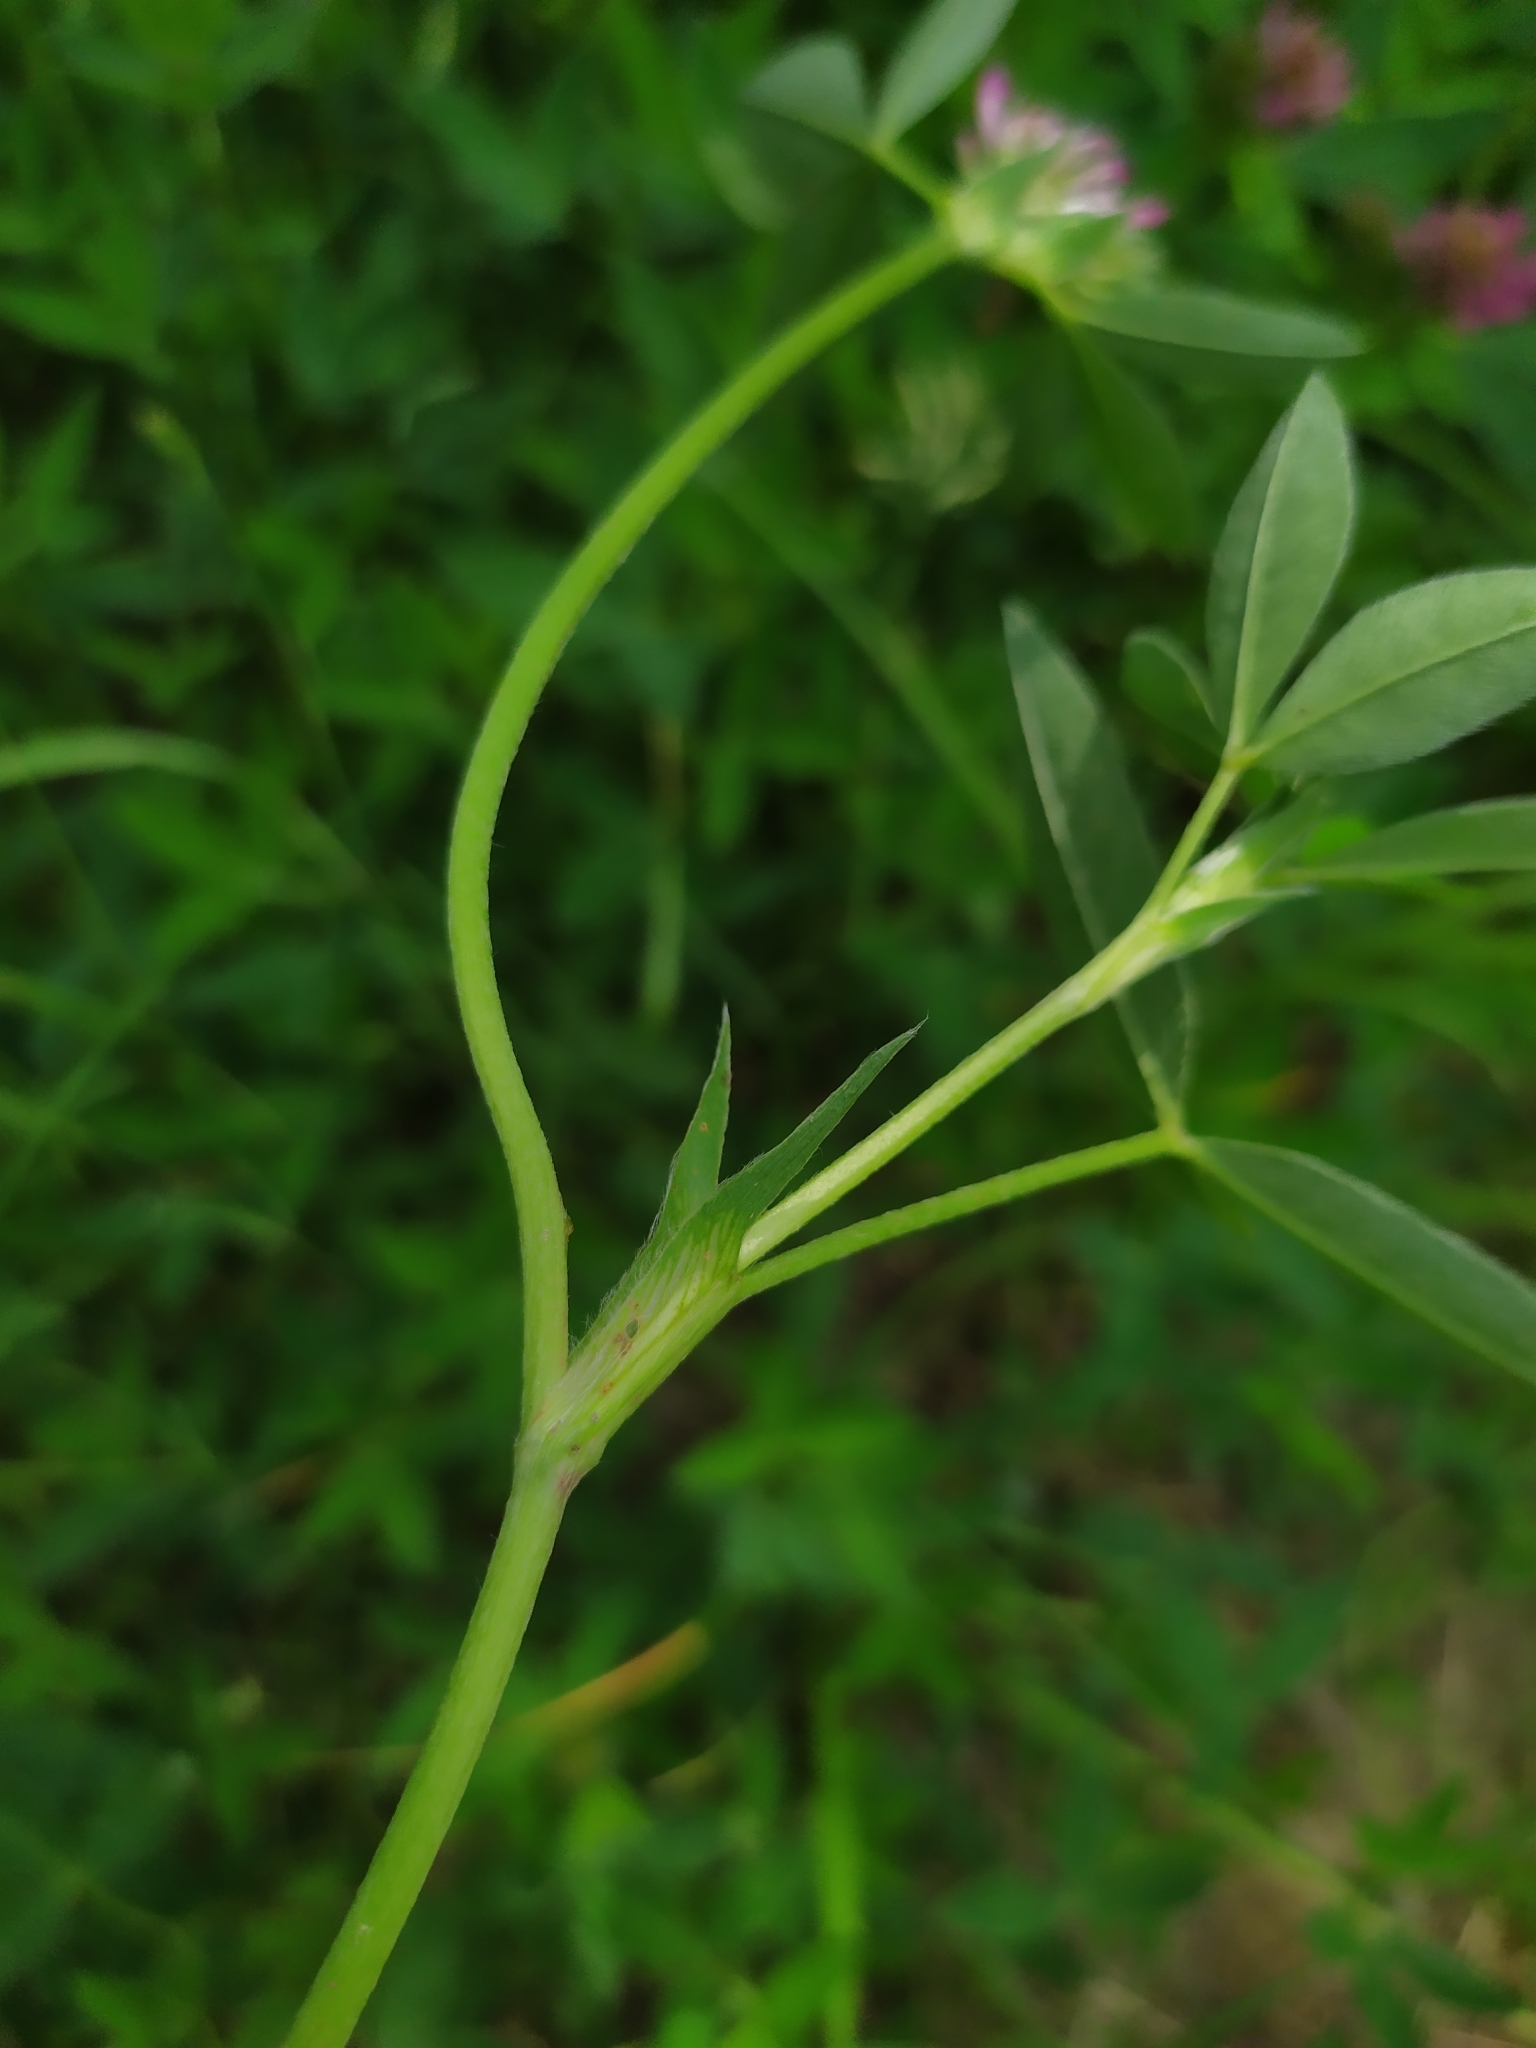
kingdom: Plantae
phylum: Tracheophyta
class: Magnoliopsida
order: Fabales
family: Fabaceae
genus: Trifolium
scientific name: Trifolium medium
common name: Zigzag clover
